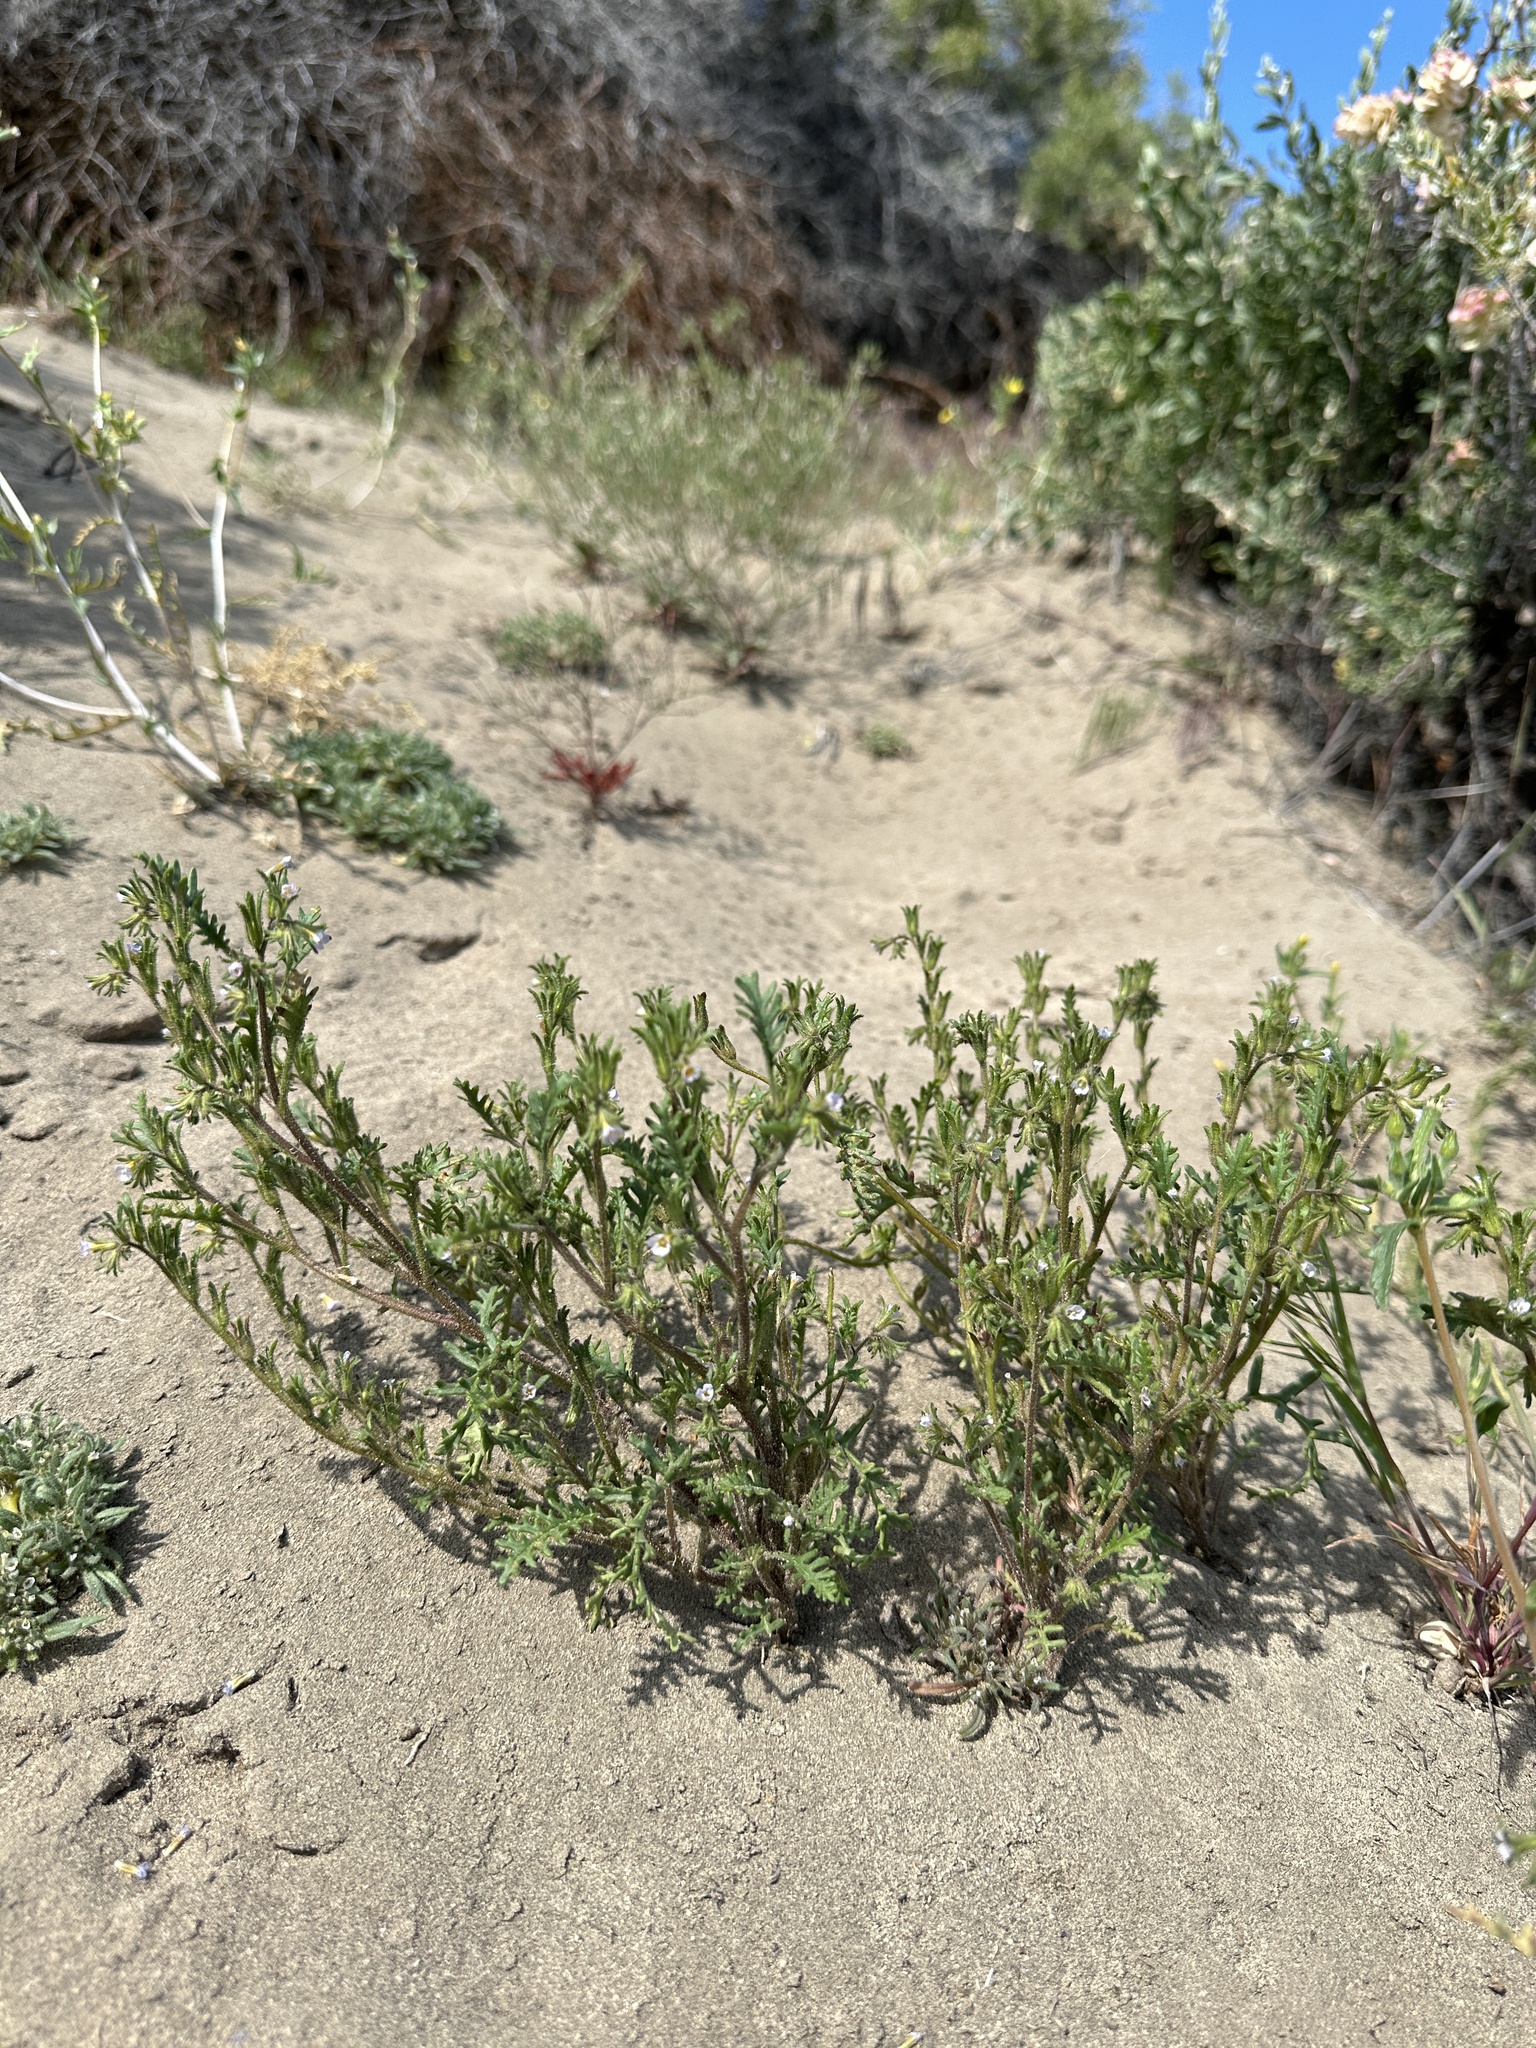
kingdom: Plantae
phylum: Tracheophyta
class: Magnoliopsida
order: Boraginales
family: Hydrophyllaceae
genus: Phacelia
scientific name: Phacelia glandulifera
